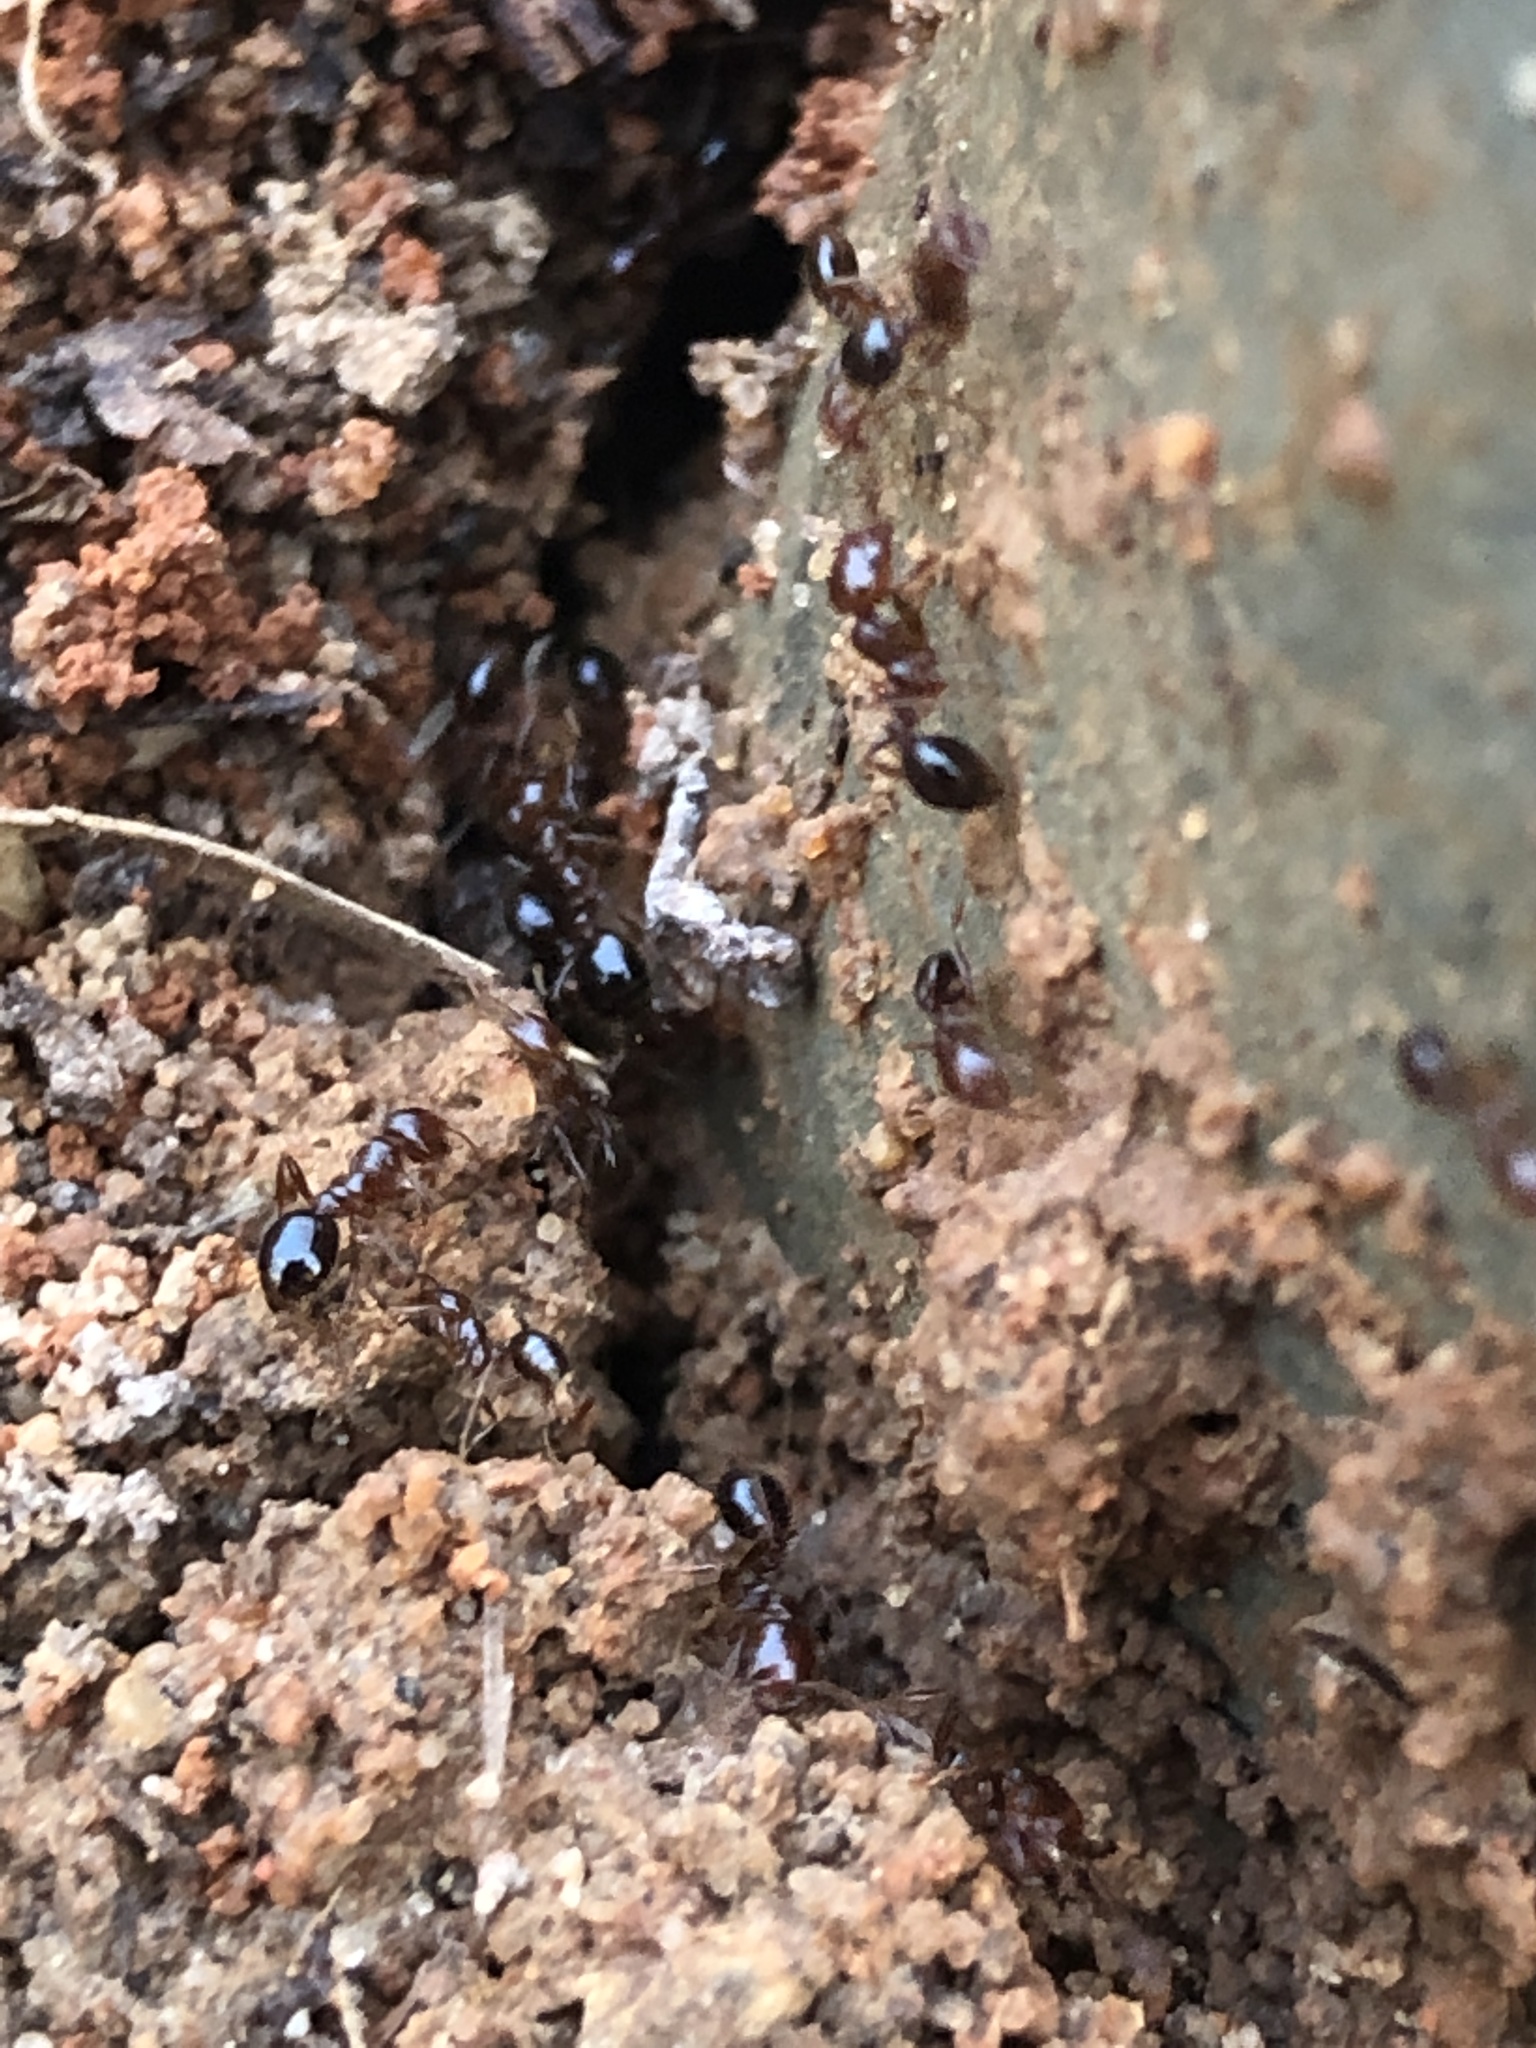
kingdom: Animalia
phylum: Arthropoda
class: Insecta
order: Hymenoptera
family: Formicidae
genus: Solenopsis
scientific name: Solenopsis invicta
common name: Red imported fire ant
